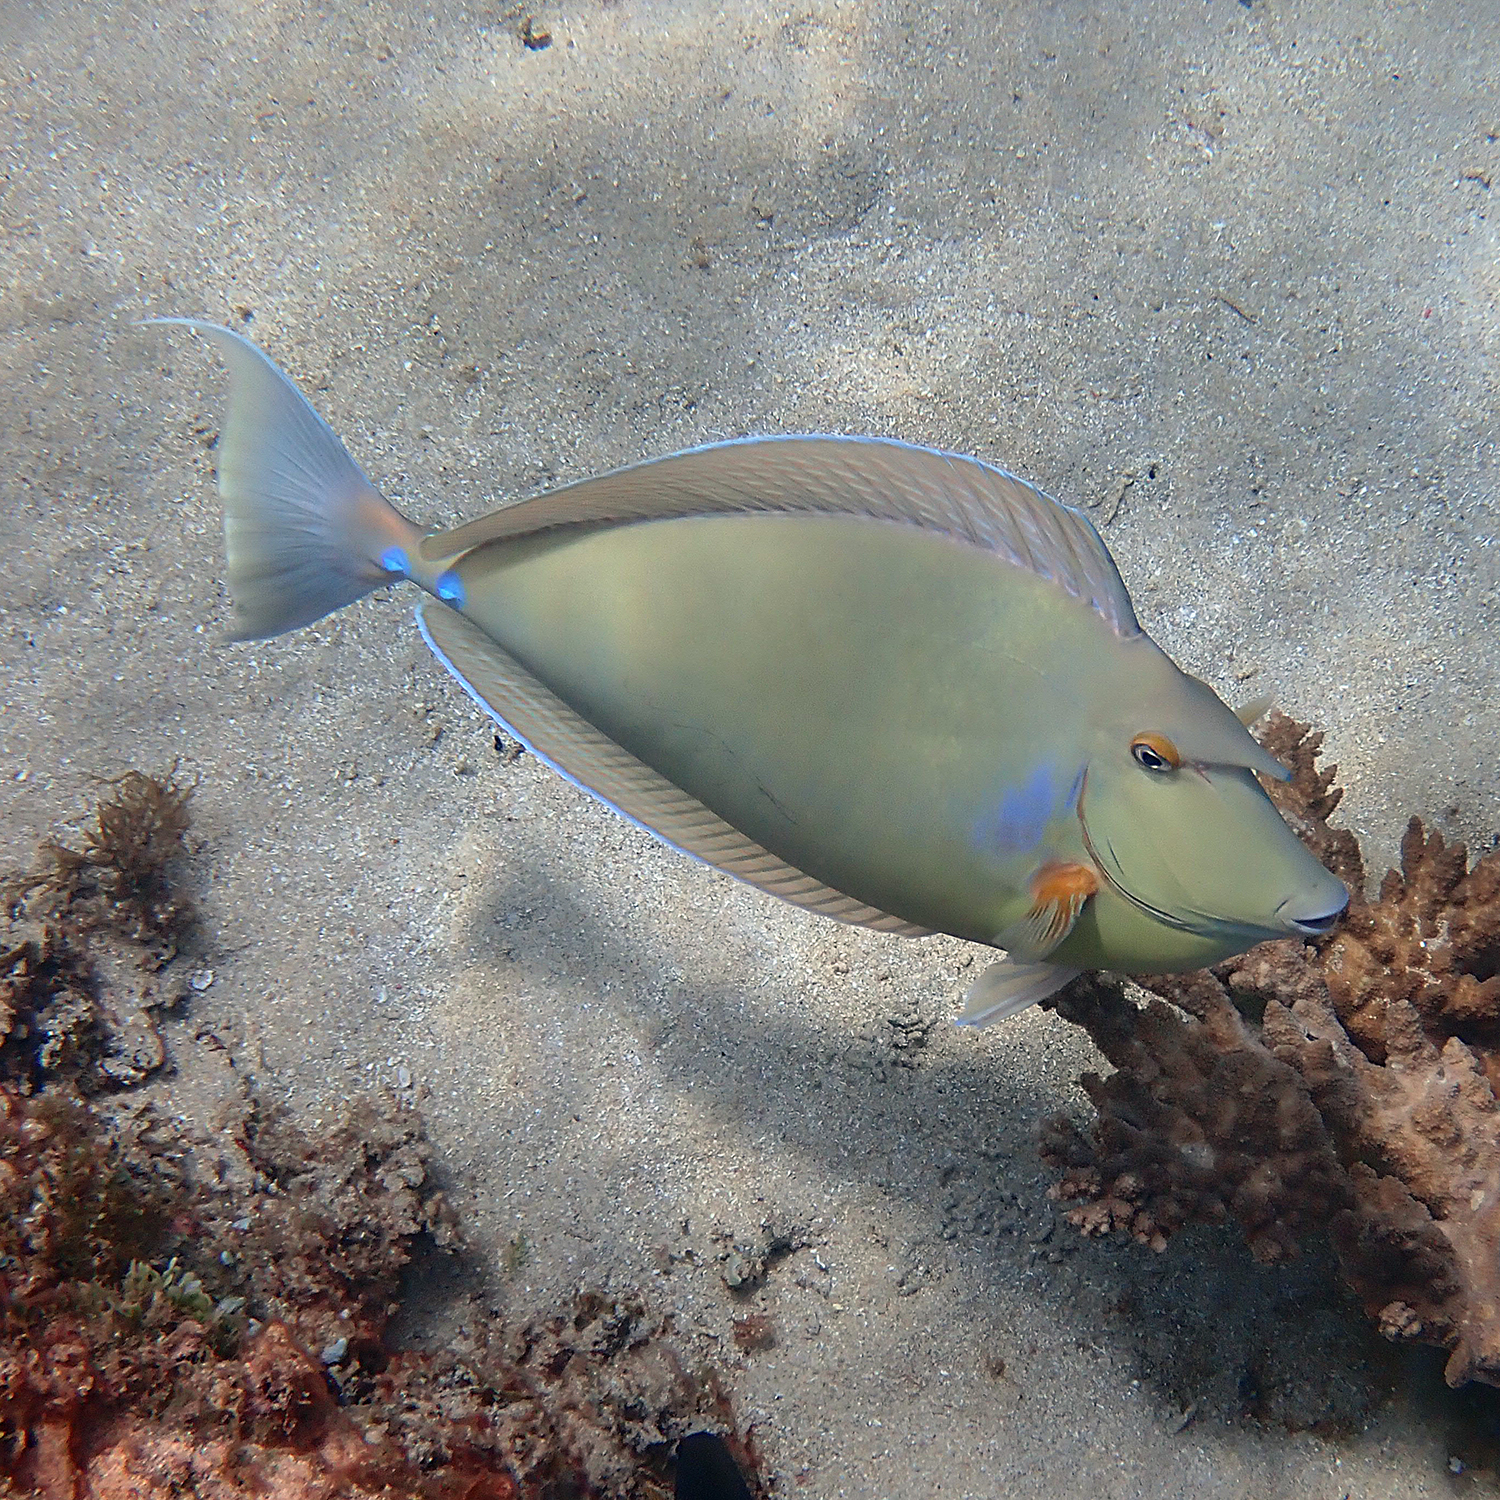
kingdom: Animalia
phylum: Chordata
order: Perciformes
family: Acanthuridae
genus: Naso
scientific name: Naso unicornis
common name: Bluespine unicornfish
